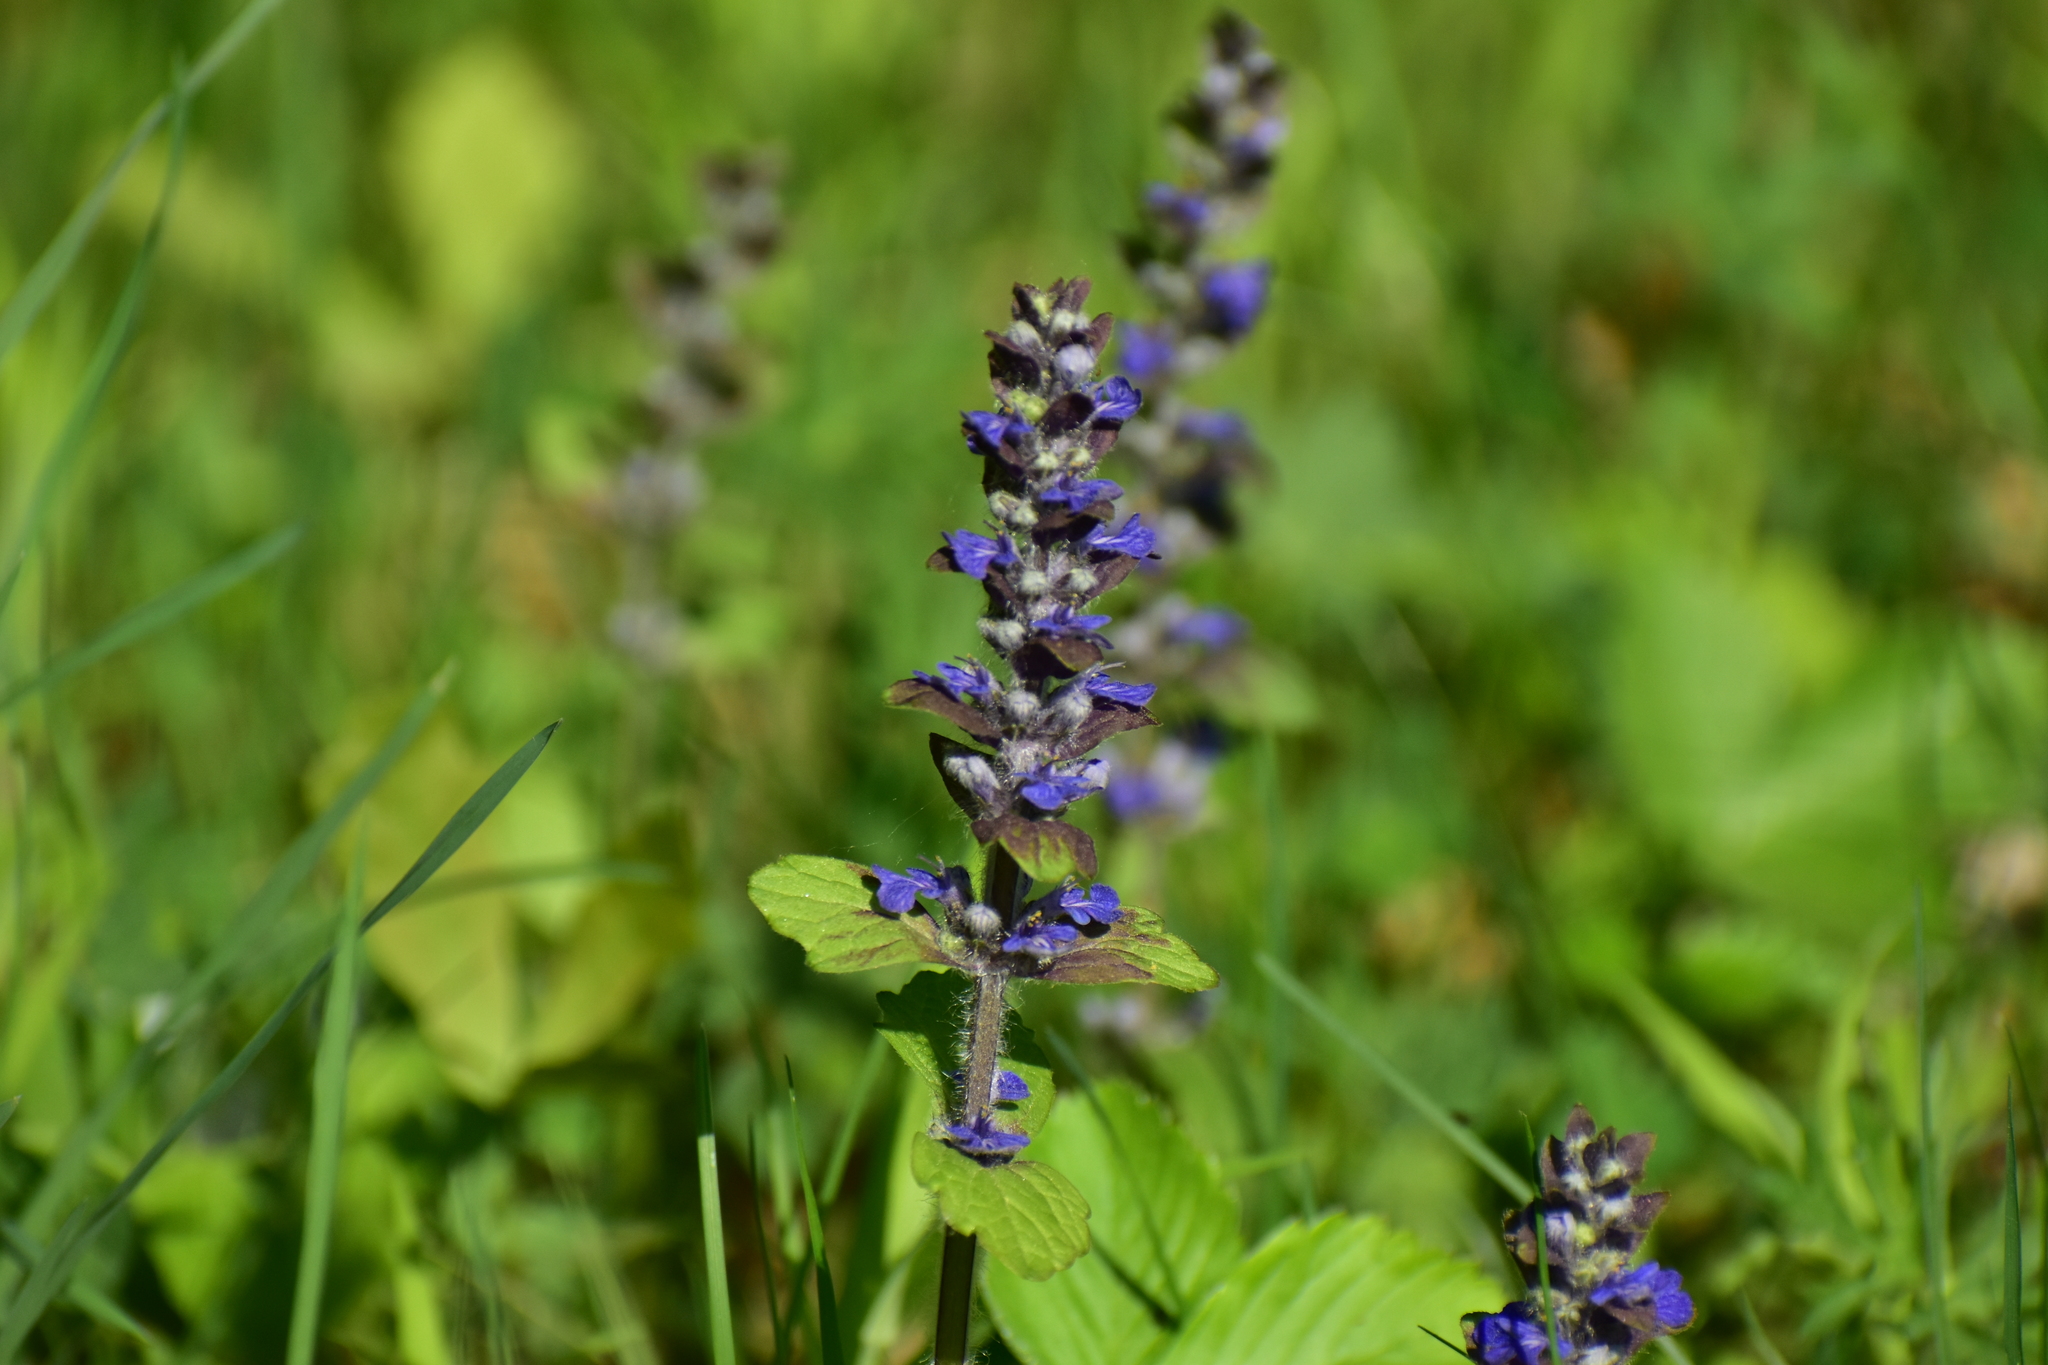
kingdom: Plantae
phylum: Tracheophyta
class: Magnoliopsida
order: Lamiales
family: Lamiaceae
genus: Ajuga
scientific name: Ajuga reptans
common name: Bugle
